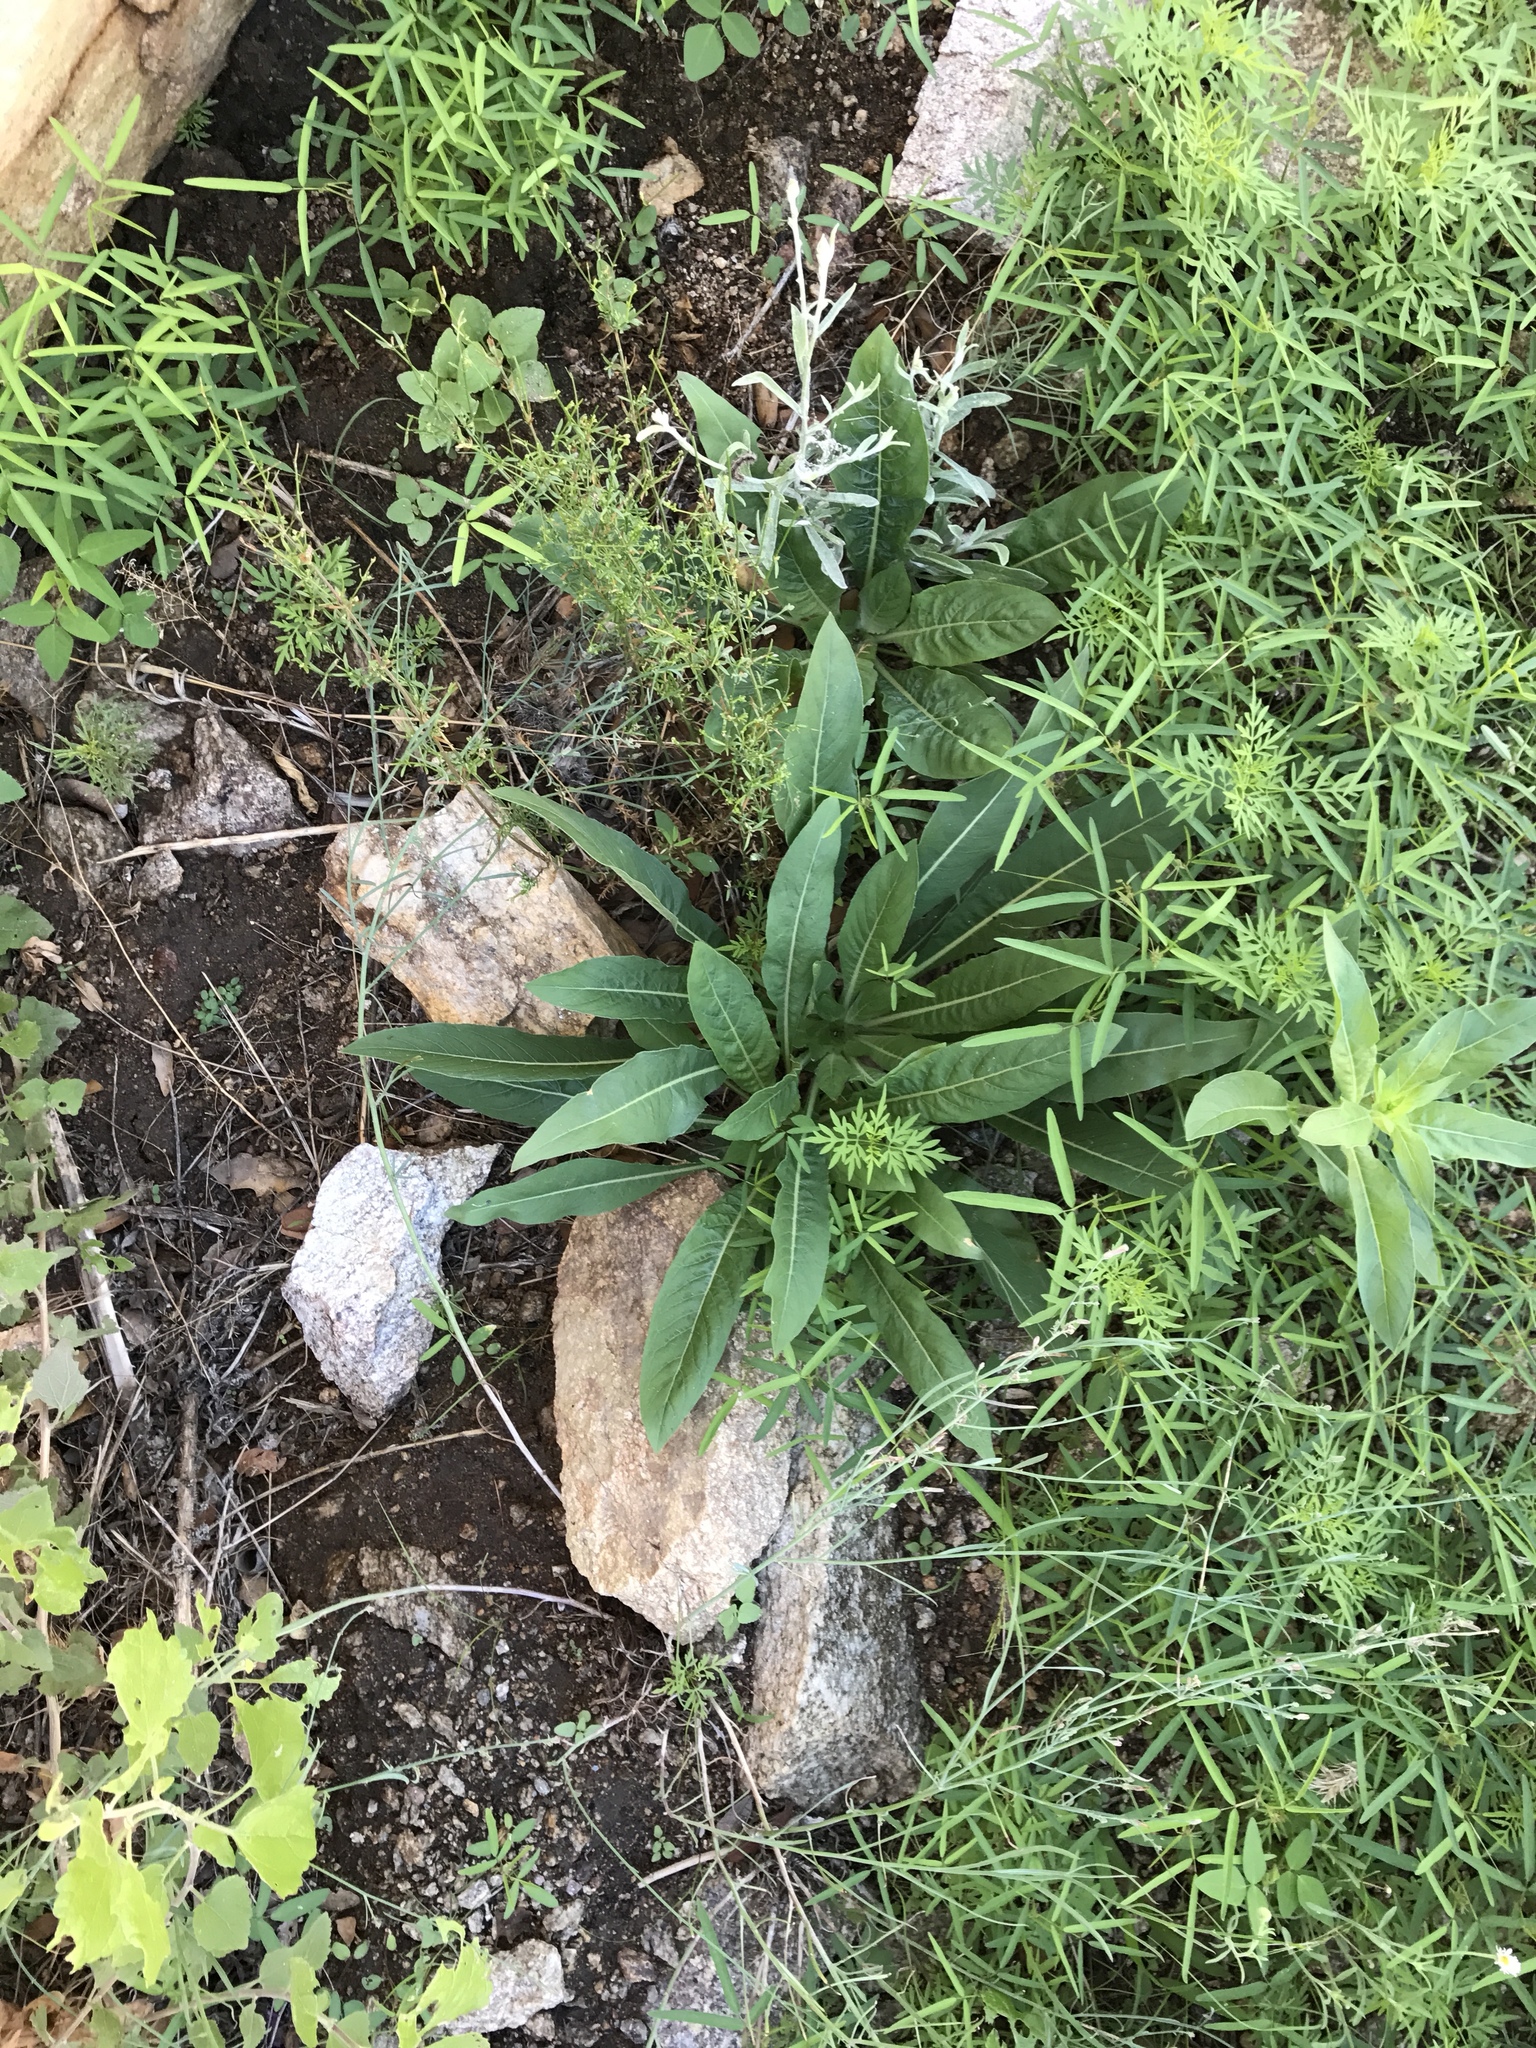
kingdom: Plantae
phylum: Tracheophyta
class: Magnoliopsida
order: Myrtales
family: Onagraceae
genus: Oenothera
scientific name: Oenothera elata
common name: Hooker's evening-primrose
